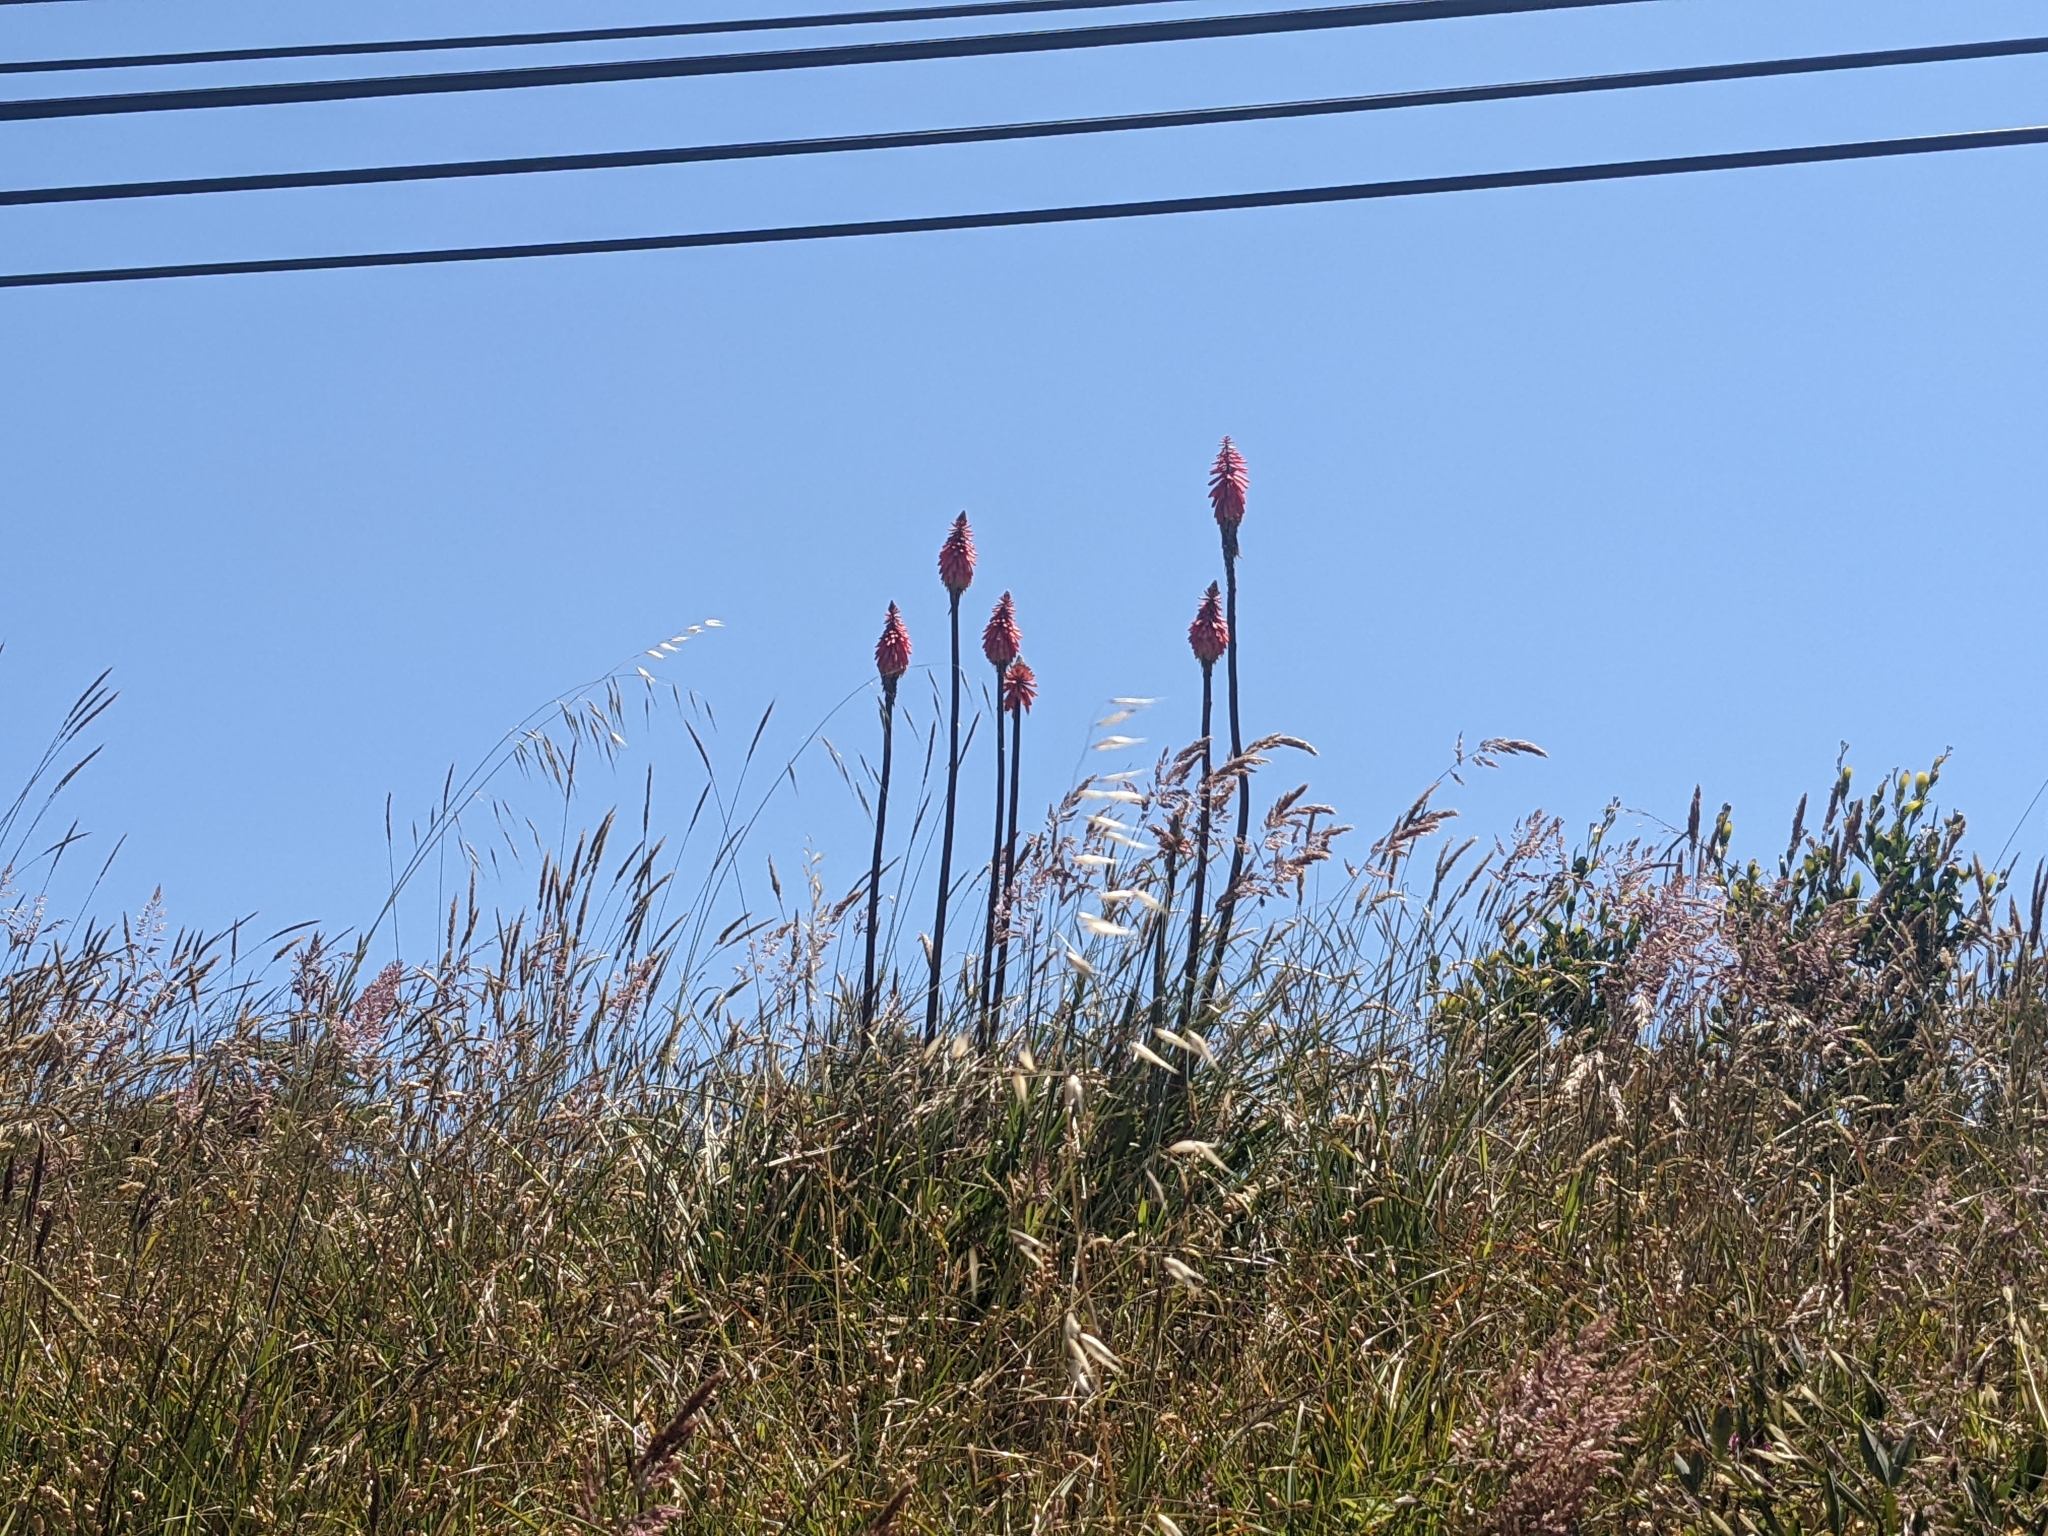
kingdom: Plantae
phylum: Tracheophyta
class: Liliopsida
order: Asparagales
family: Asphodelaceae
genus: Kniphofia
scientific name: Kniphofia uvaria
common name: Red-hot-poker
